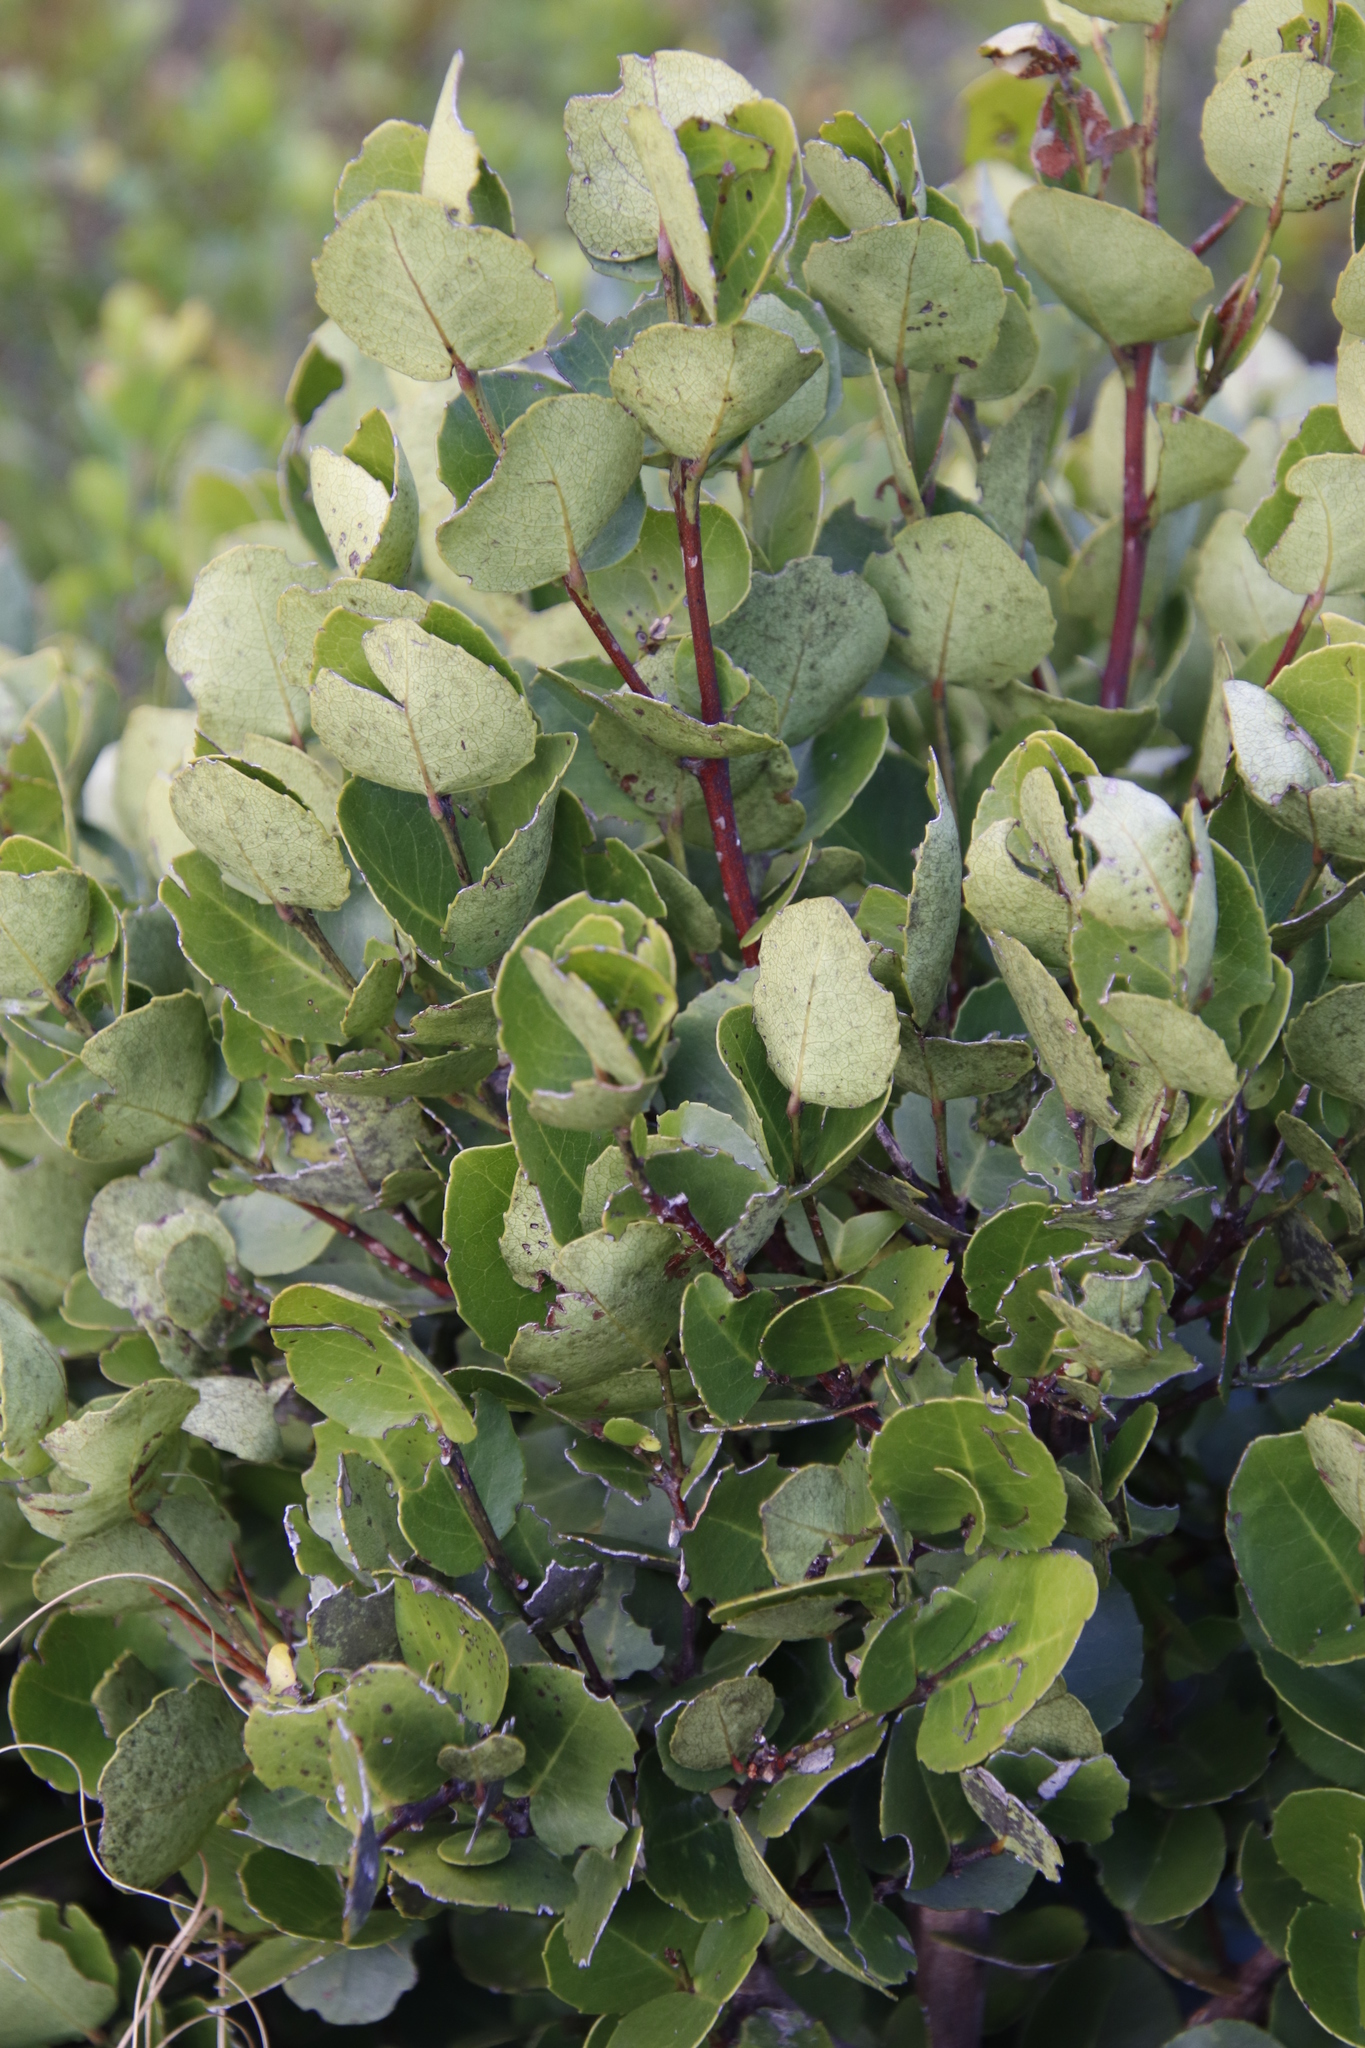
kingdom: Plantae
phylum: Tracheophyta
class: Magnoliopsida
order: Celastrales
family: Celastraceae
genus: Cassine
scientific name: Cassine peragua
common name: Cape saffron
